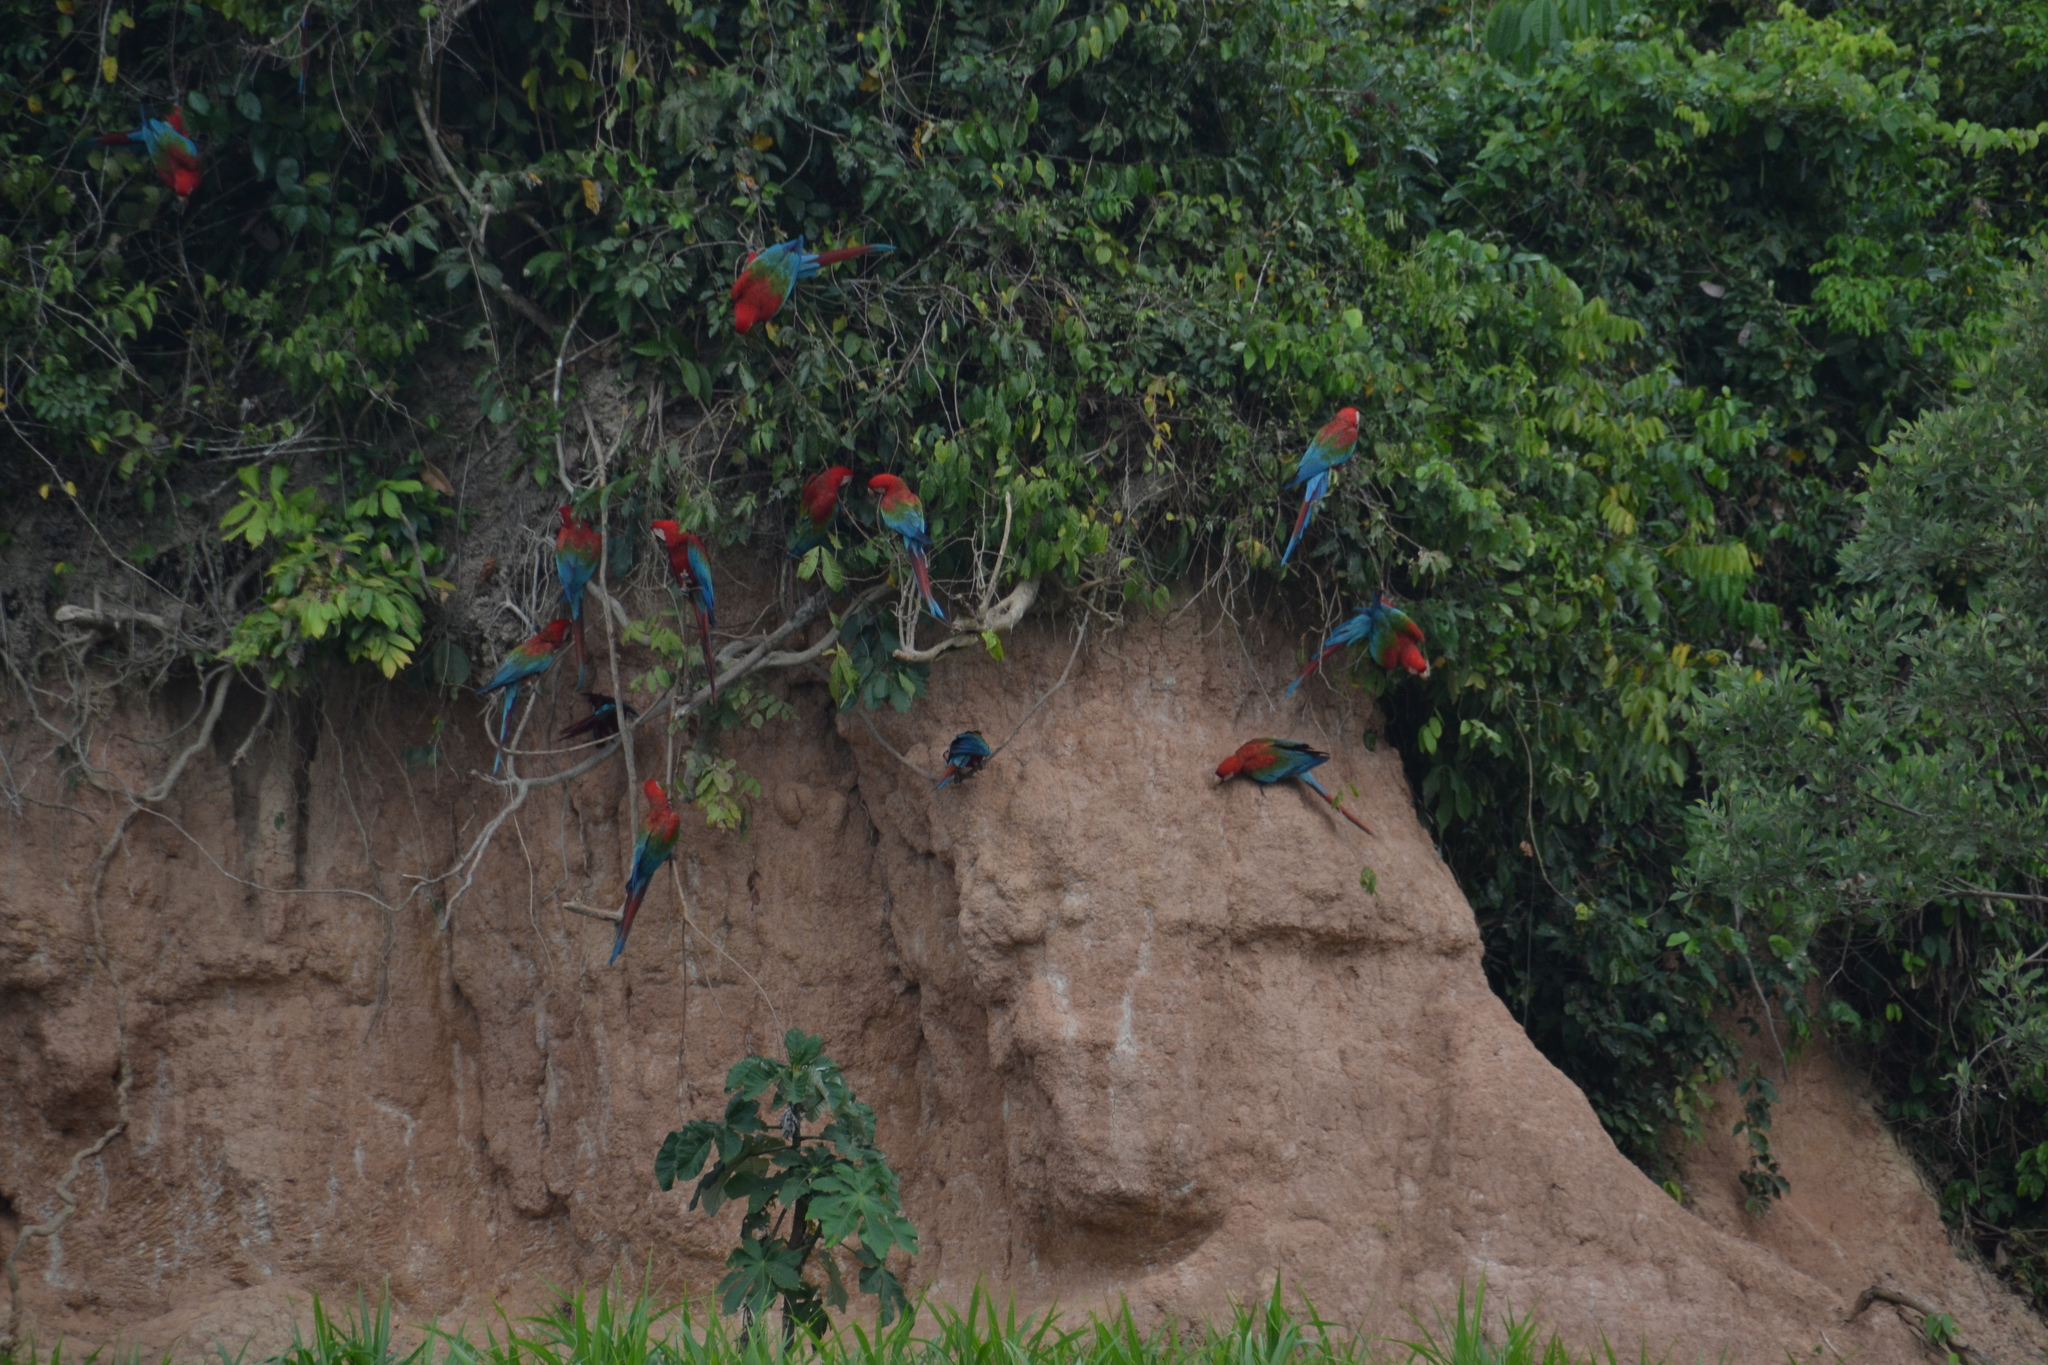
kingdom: Animalia
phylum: Chordata
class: Aves
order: Psittaciformes
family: Psittacidae
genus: Ara
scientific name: Ara chloropterus
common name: Red-and-green macaw
